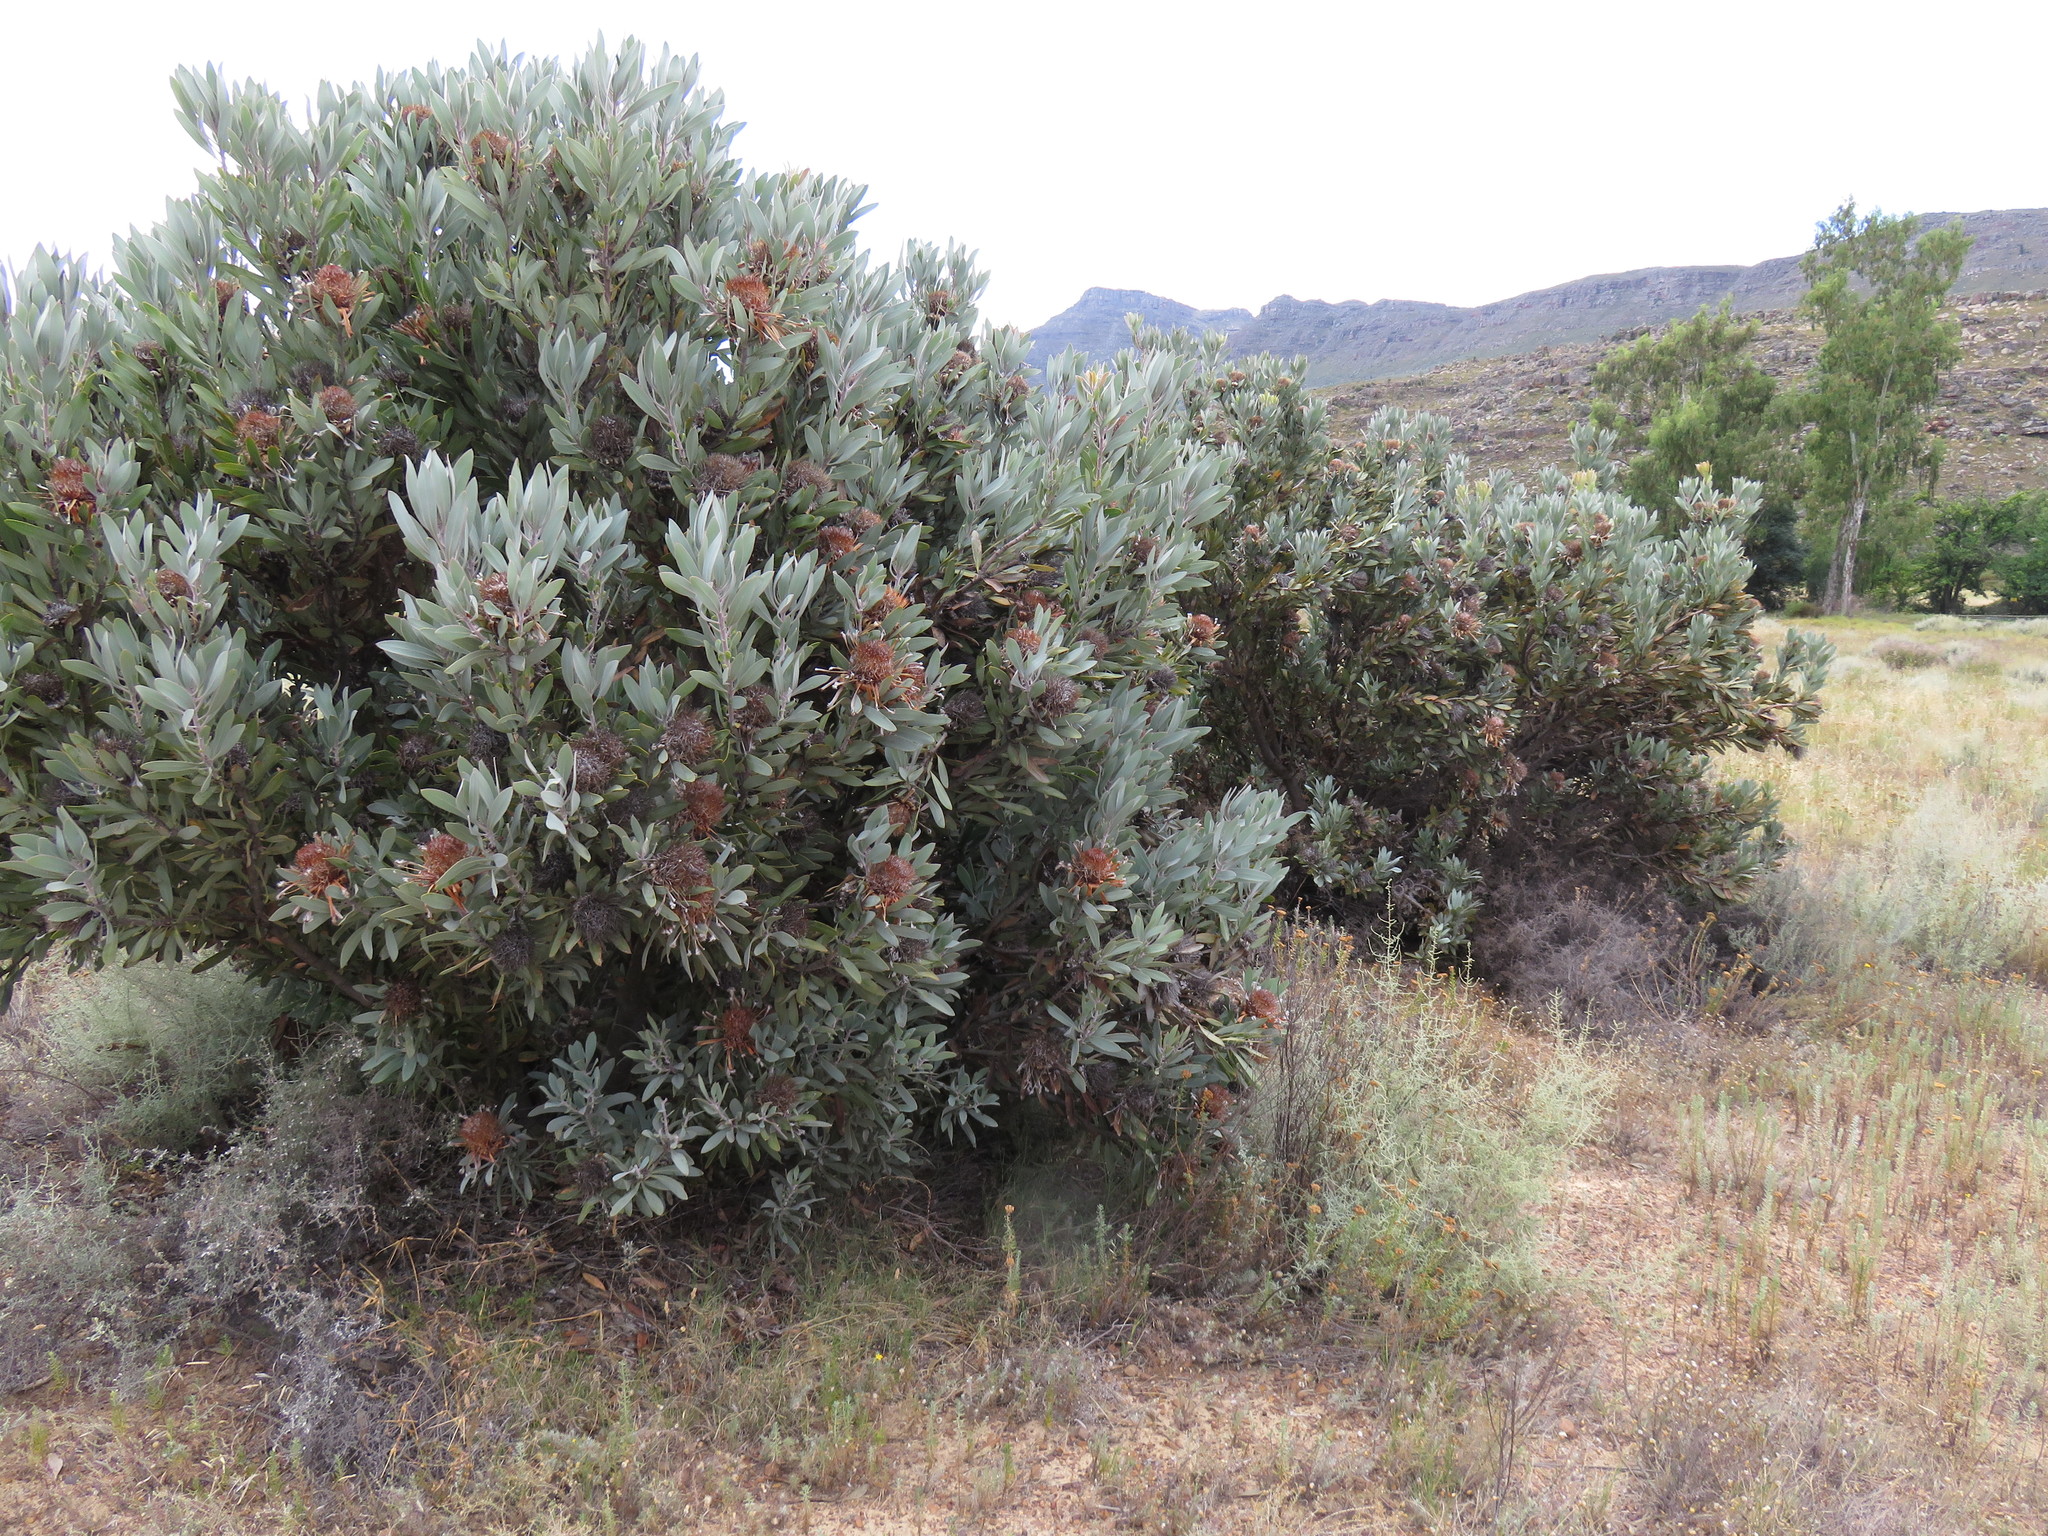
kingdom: Plantae
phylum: Tracheophyta
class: Magnoliopsida
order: Proteales
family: Proteaceae
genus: Protea
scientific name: Protea laurifolia
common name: Grey-leaf sugarbsh
